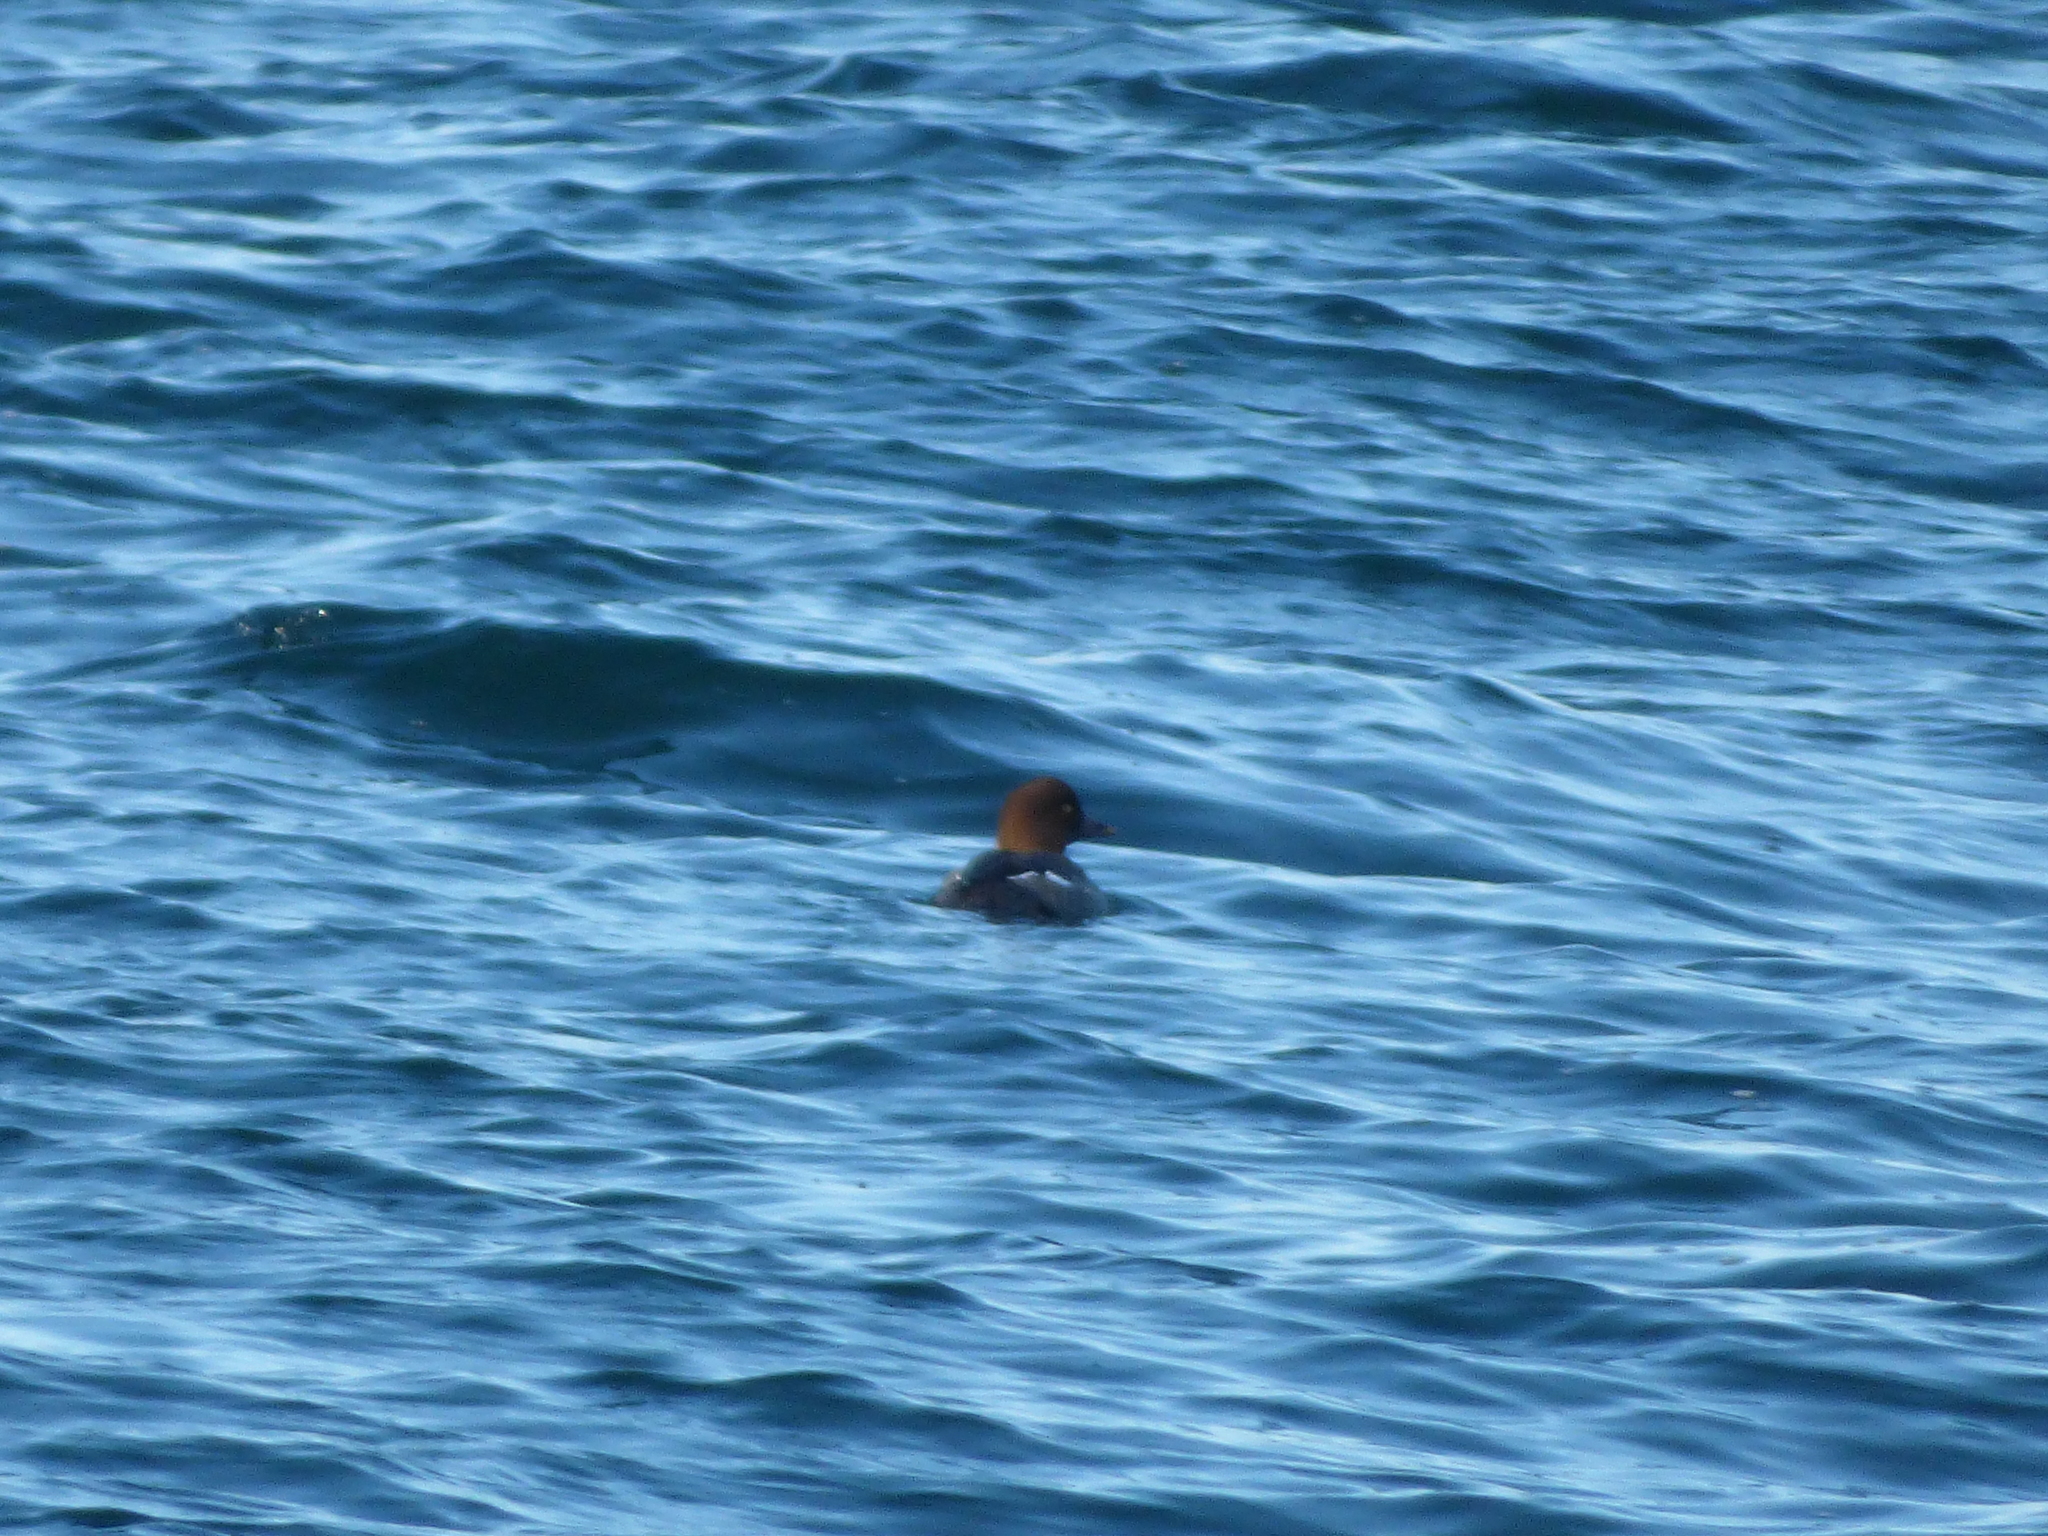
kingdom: Animalia
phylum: Chordata
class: Aves
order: Anseriformes
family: Anatidae
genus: Bucephala
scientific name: Bucephala clangula
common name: Common goldeneye
